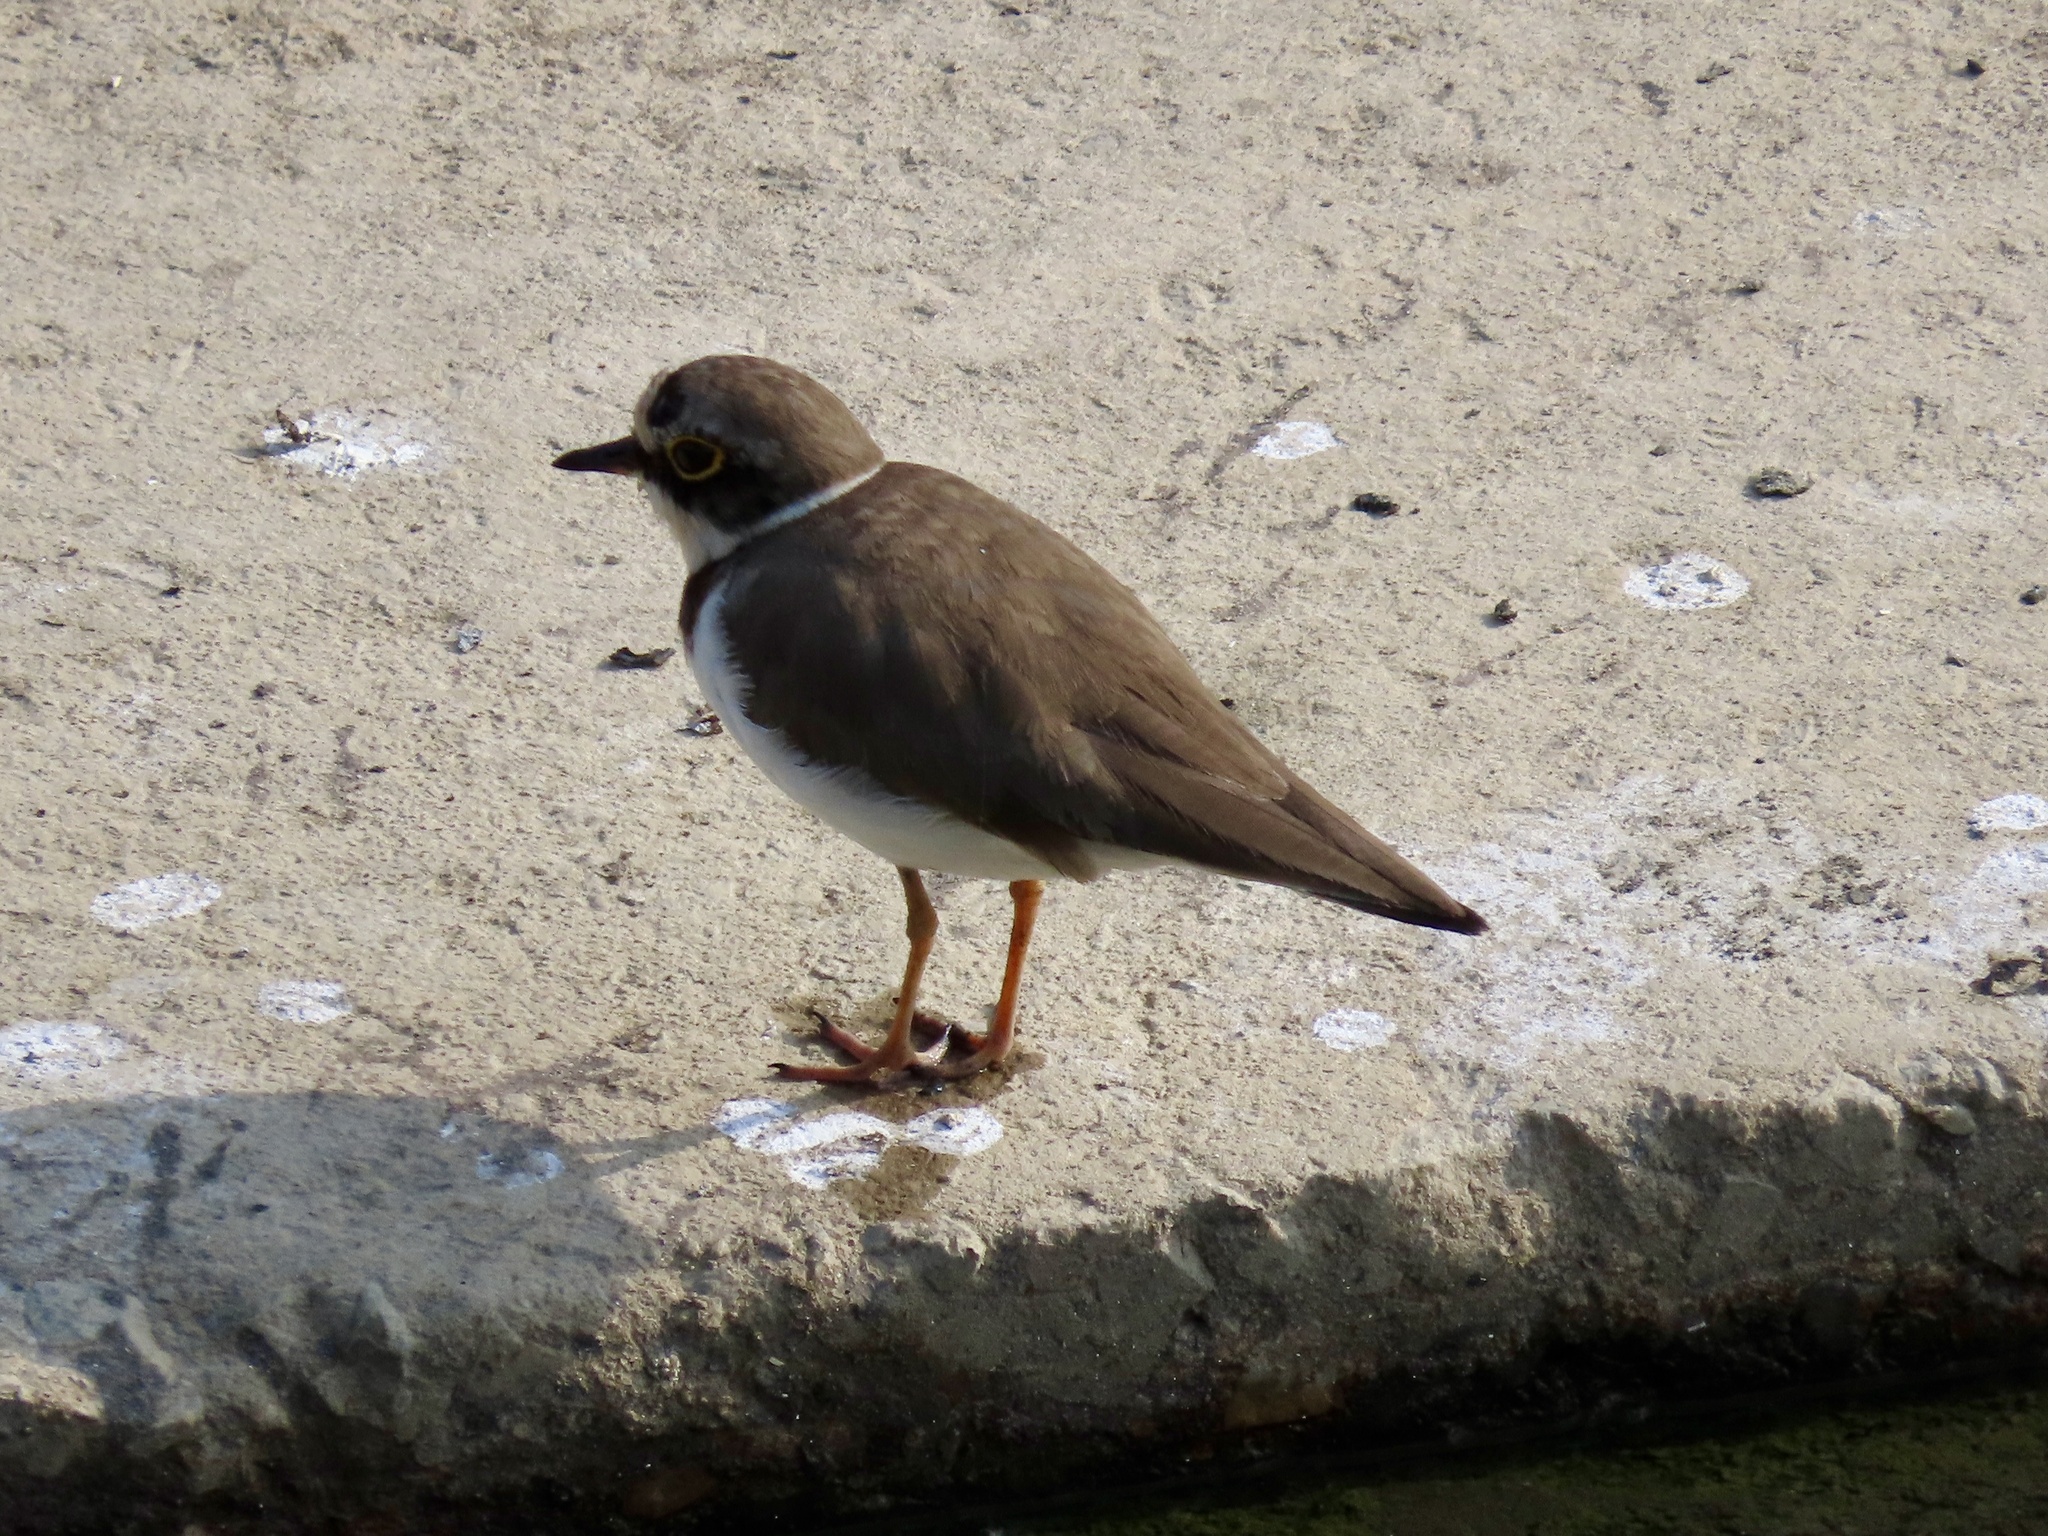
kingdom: Animalia
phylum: Chordata
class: Aves
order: Charadriiformes
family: Charadriidae
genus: Charadrius
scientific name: Charadrius dubius
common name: Little ringed plover
